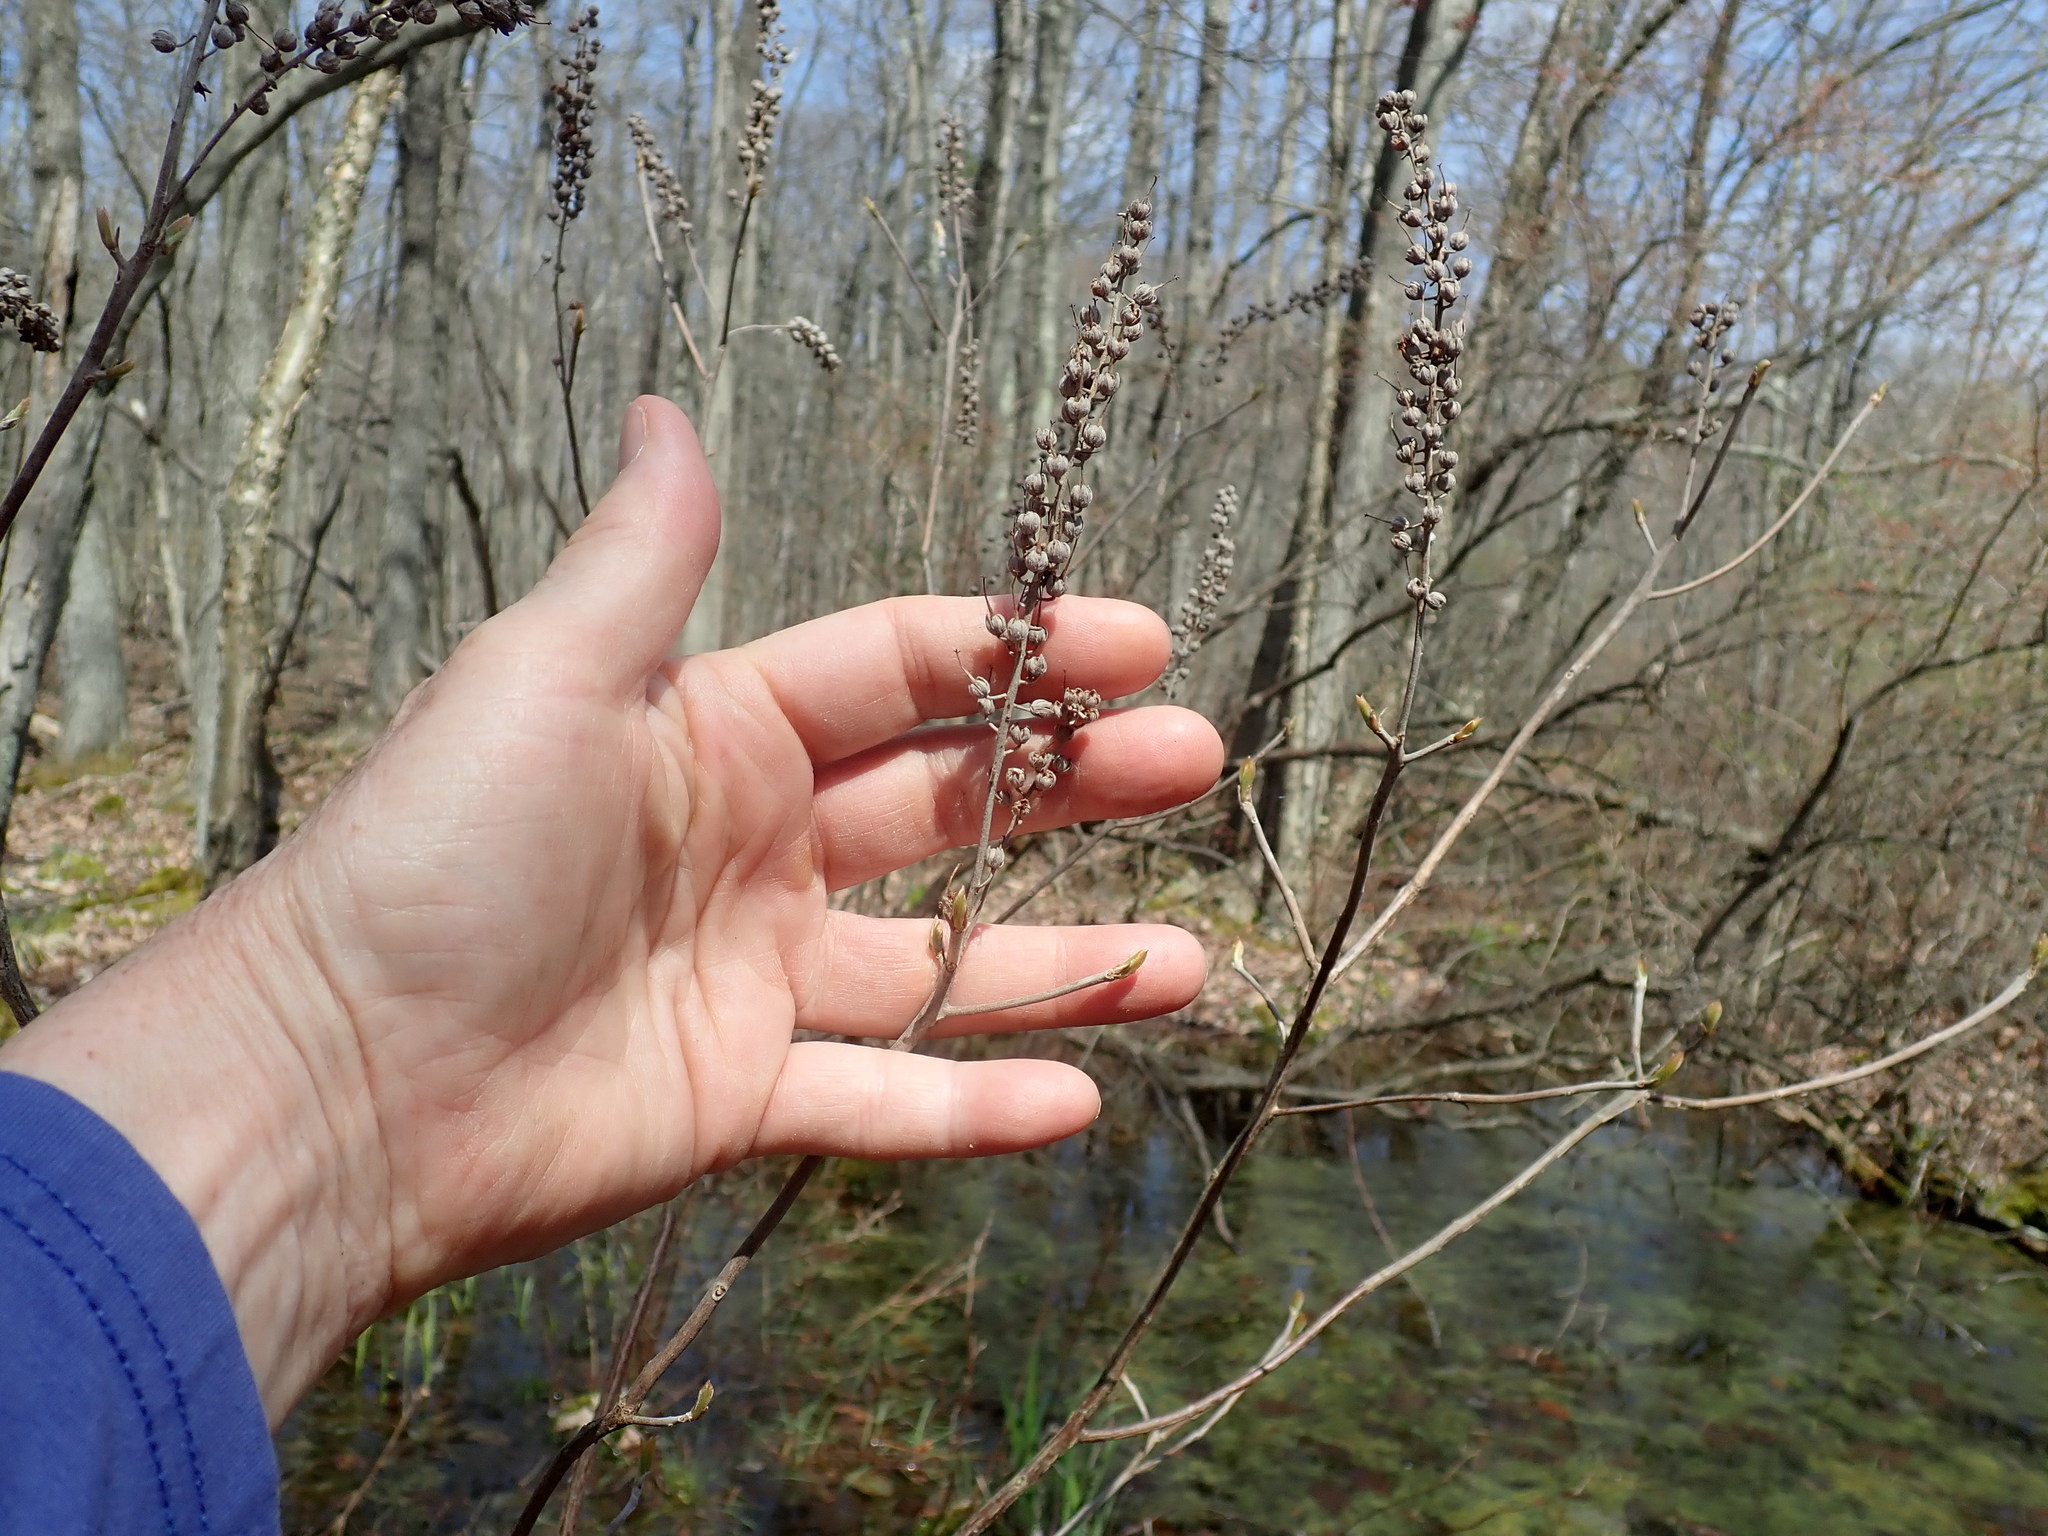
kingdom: Plantae
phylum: Tracheophyta
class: Magnoliopsida
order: Ericales
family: Clethraceae
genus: Clethra
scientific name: Clethra alnifolia
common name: Sweet pepperbush
